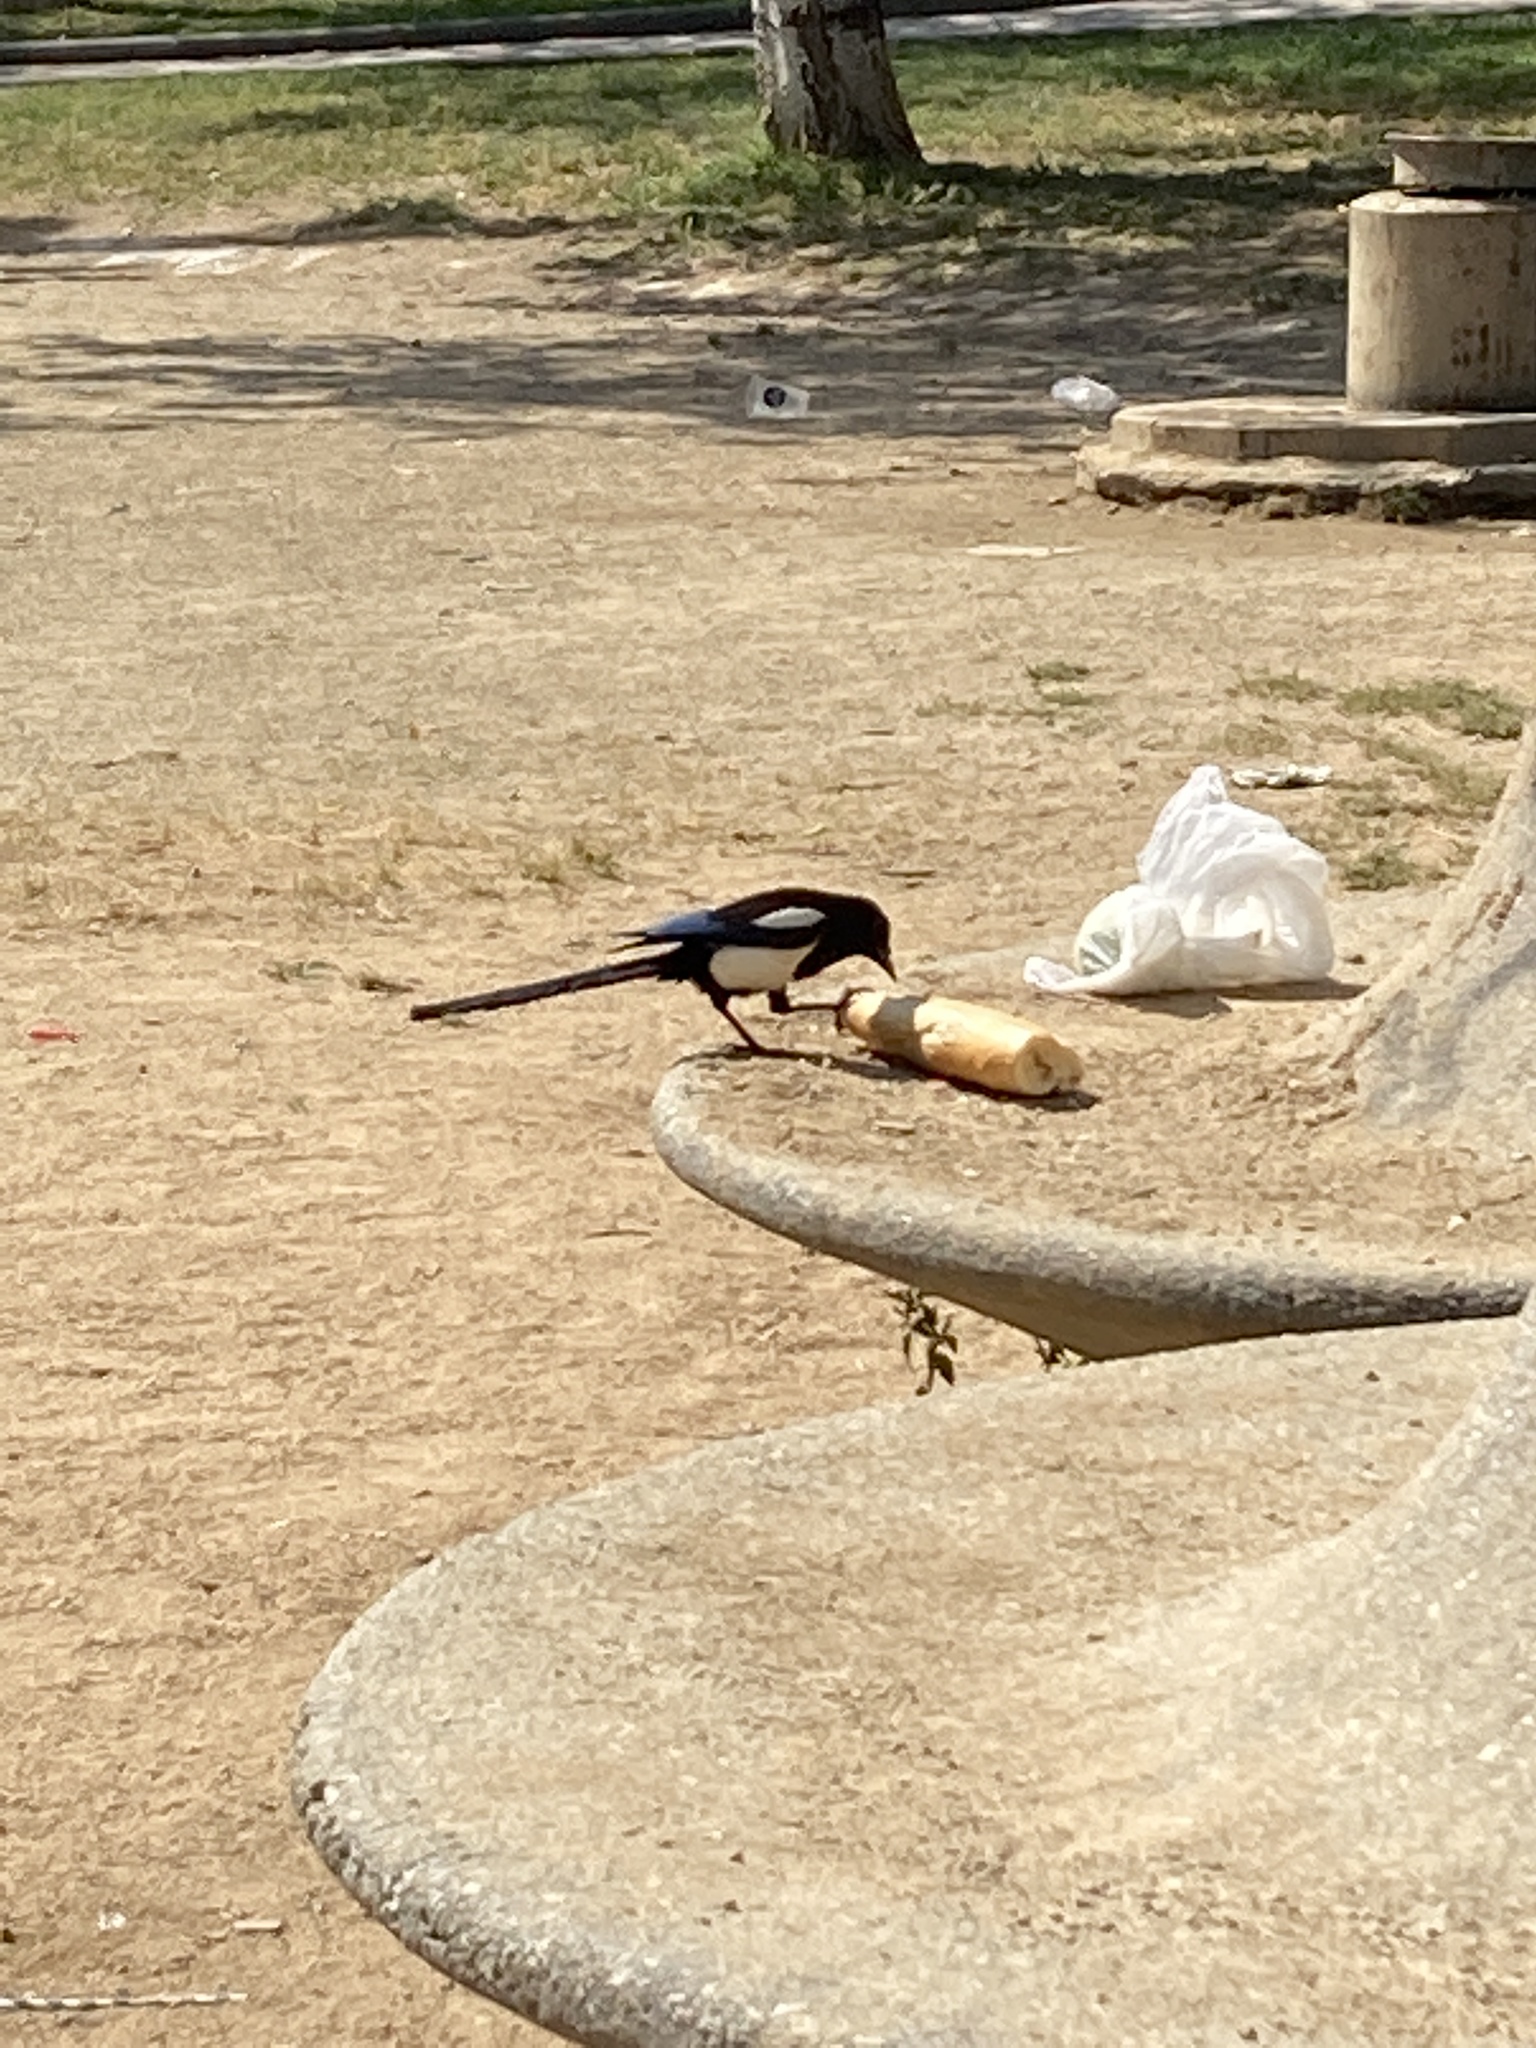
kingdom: Animalia
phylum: Chordata
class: Aves
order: Passeriformes
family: Corvidae
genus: Pica
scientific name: Pica pica
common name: Eurasian magpie
